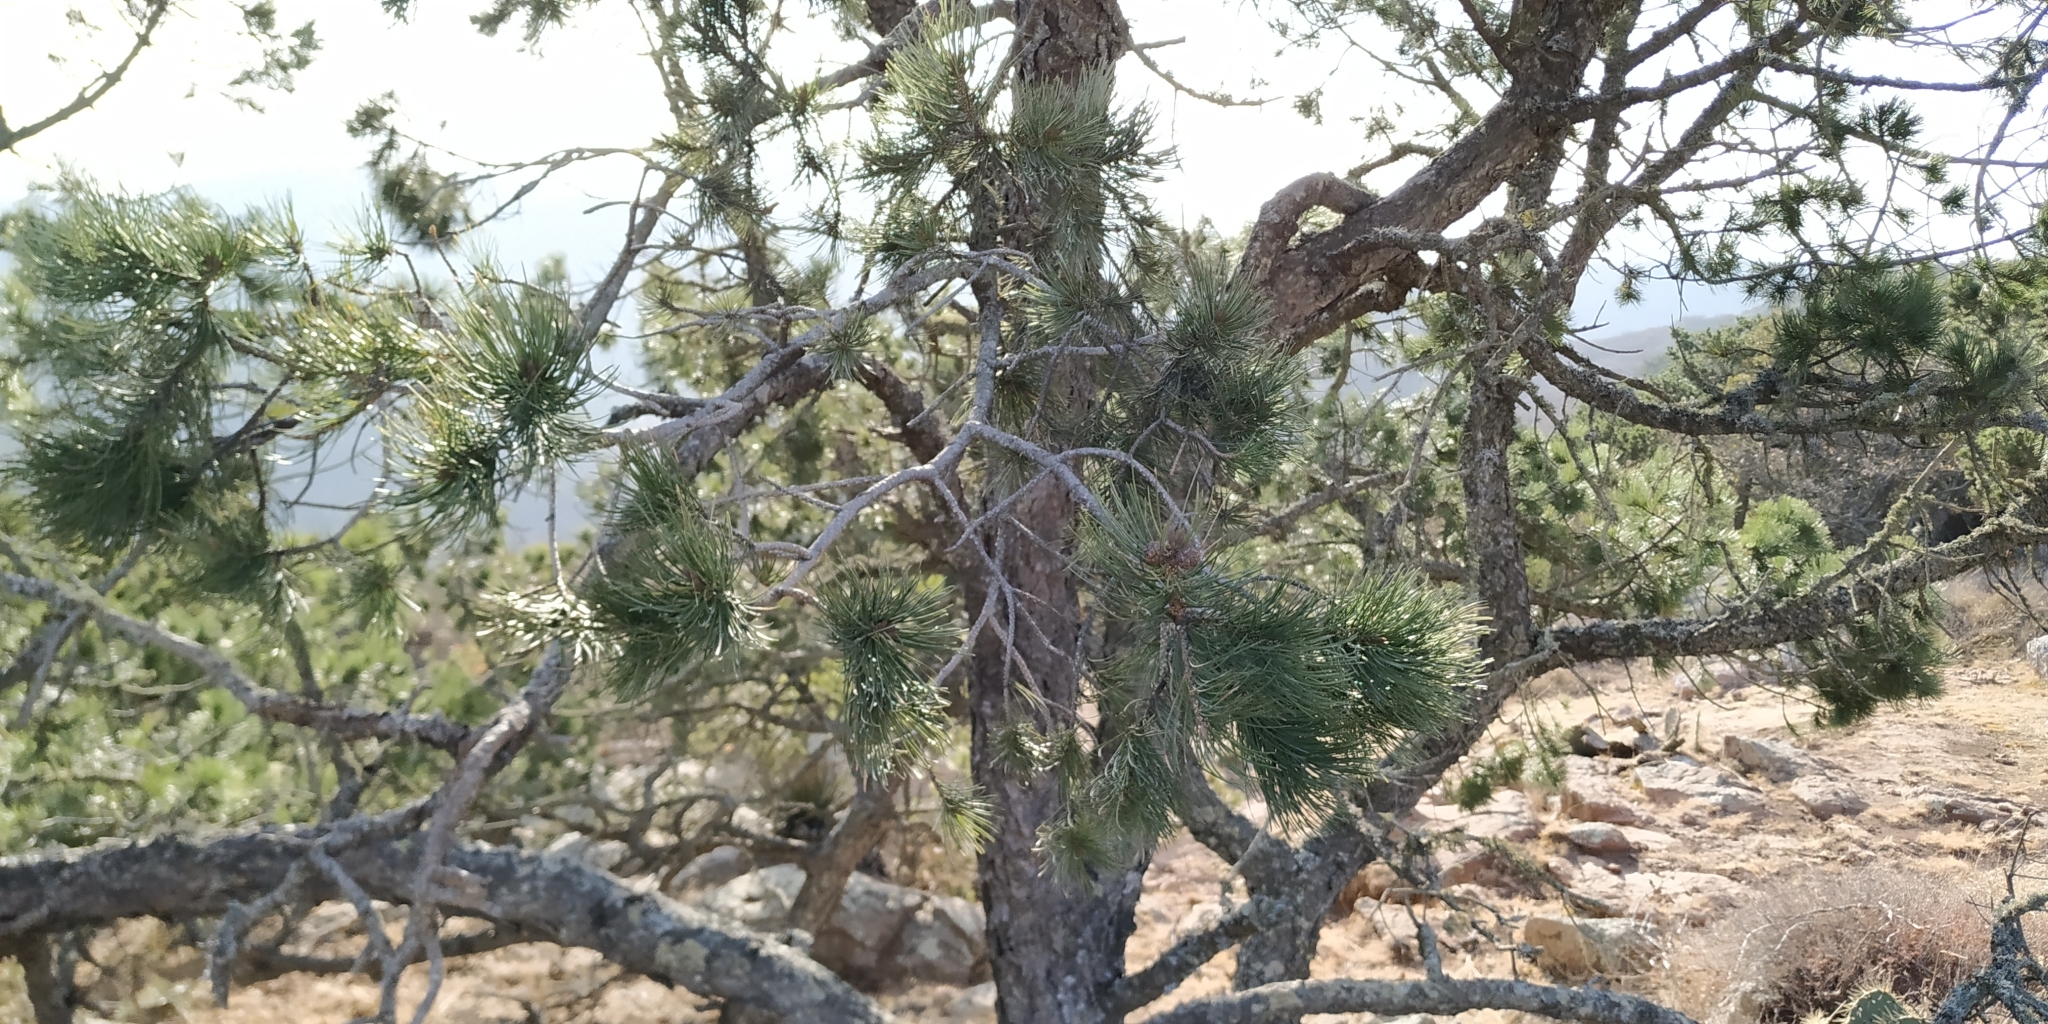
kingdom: Plantae
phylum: Tracheophyta
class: Pinopsida
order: Pinales
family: Pinaceae
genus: Pinus
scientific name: Pinus cembroides
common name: Mexican nut pine
